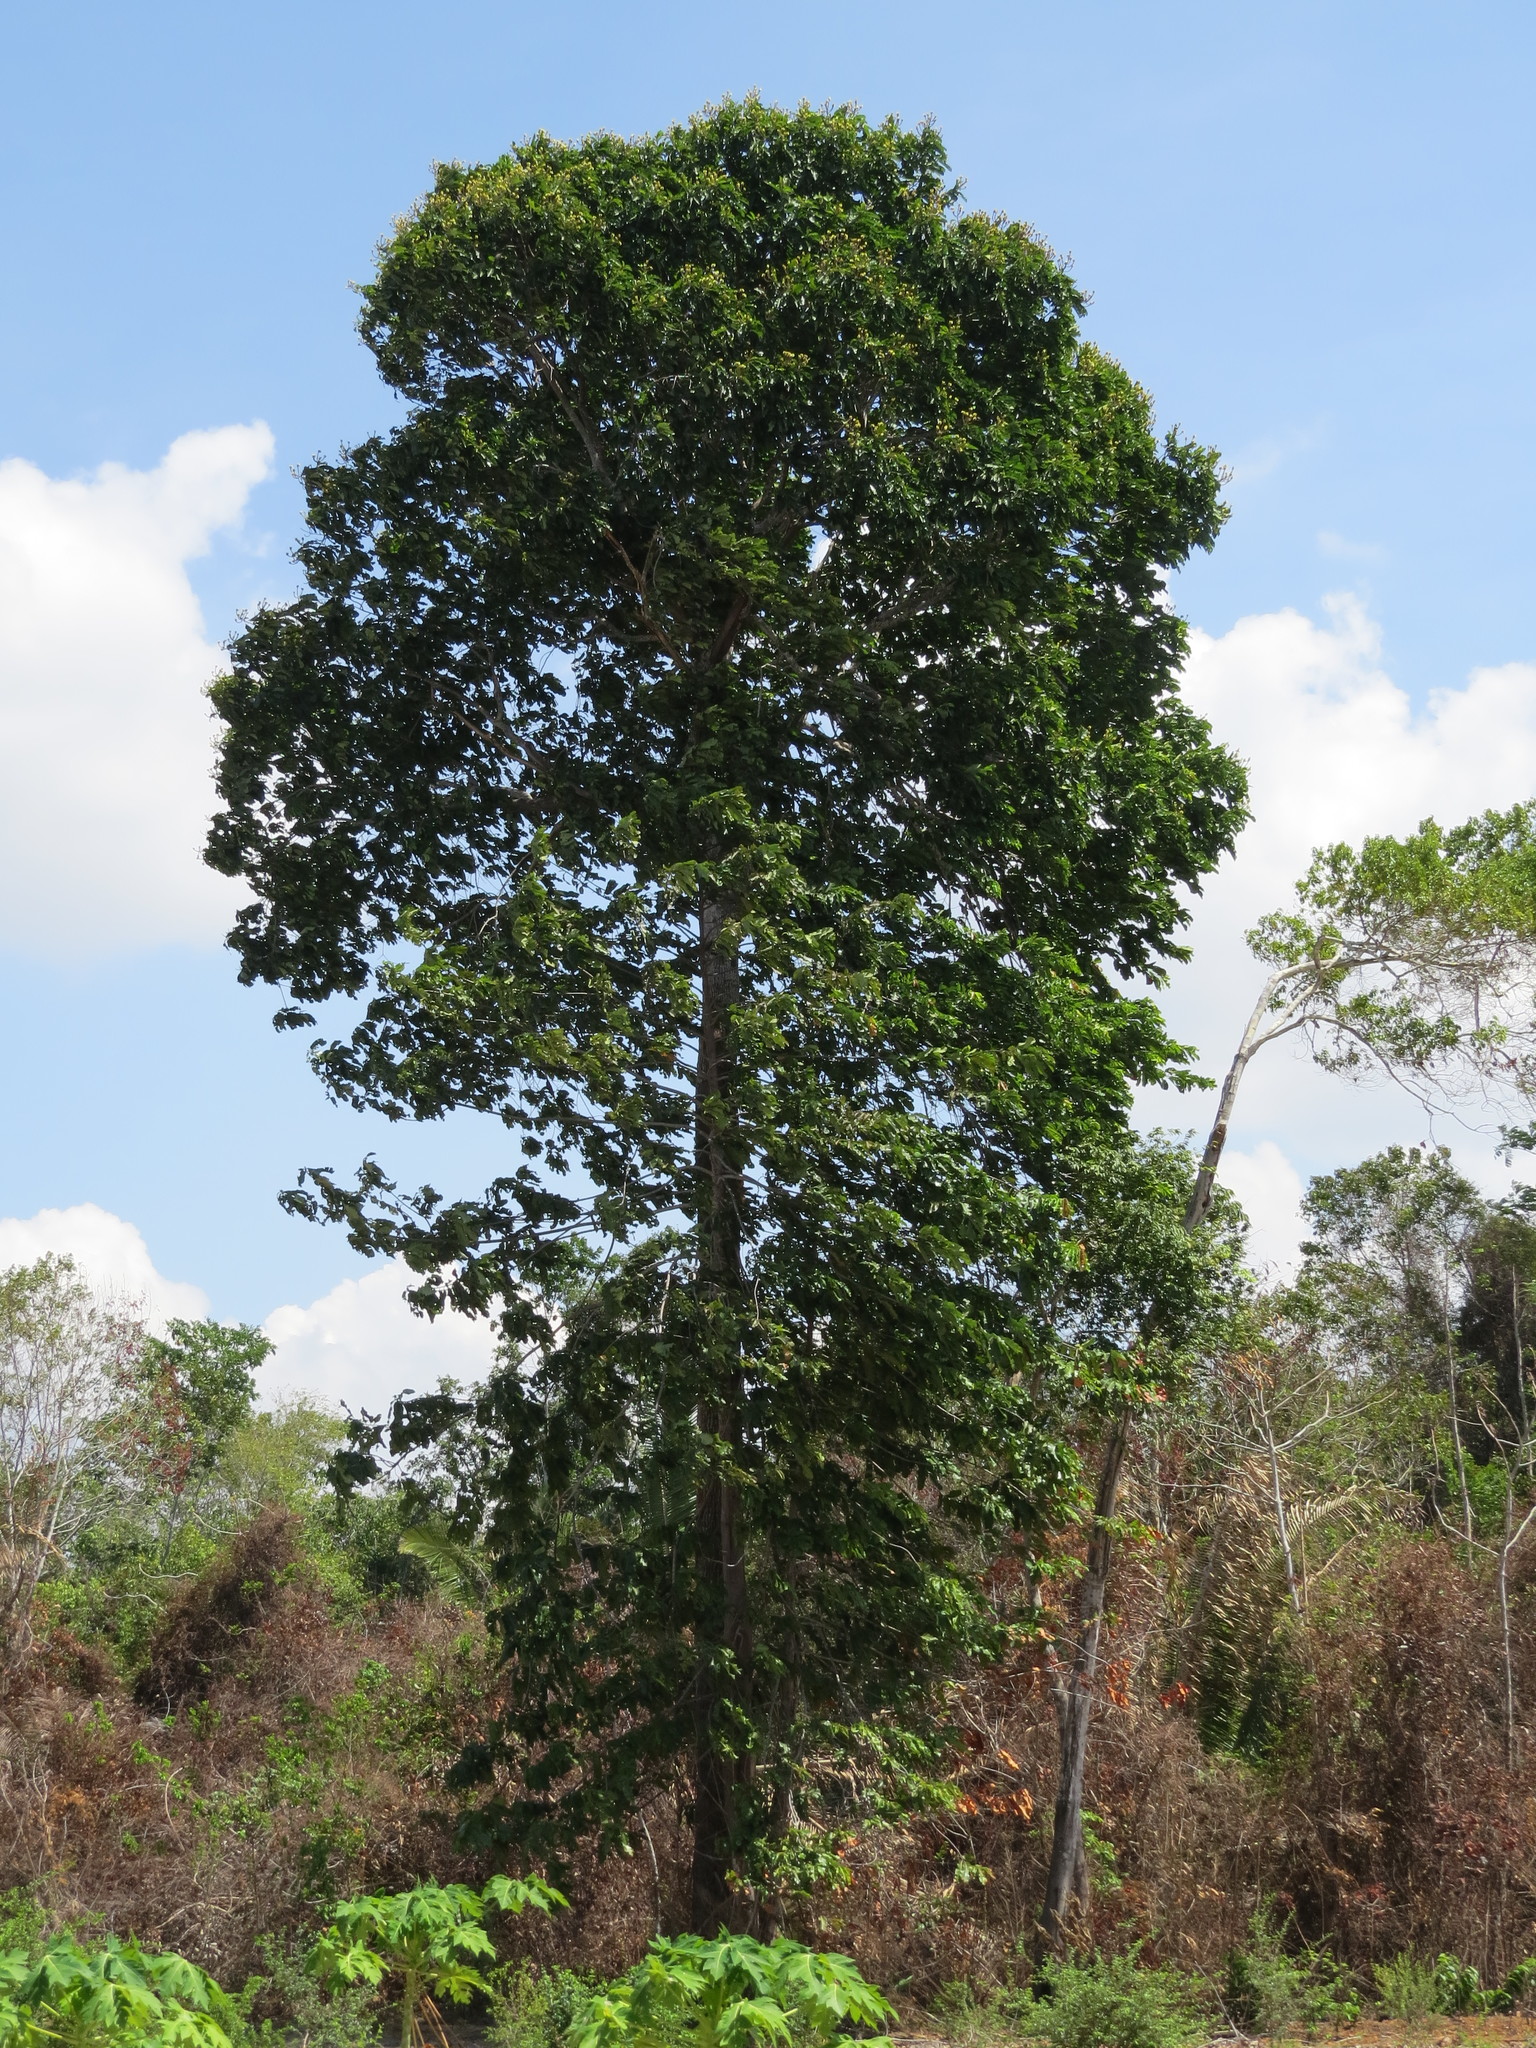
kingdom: Plantae
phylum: Tracheophyta
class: Magnoliopsida
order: Ericales
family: Lecythidaceae
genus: Bertholletia
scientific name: Bertholletia excelsa
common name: Brazil-nut tree
